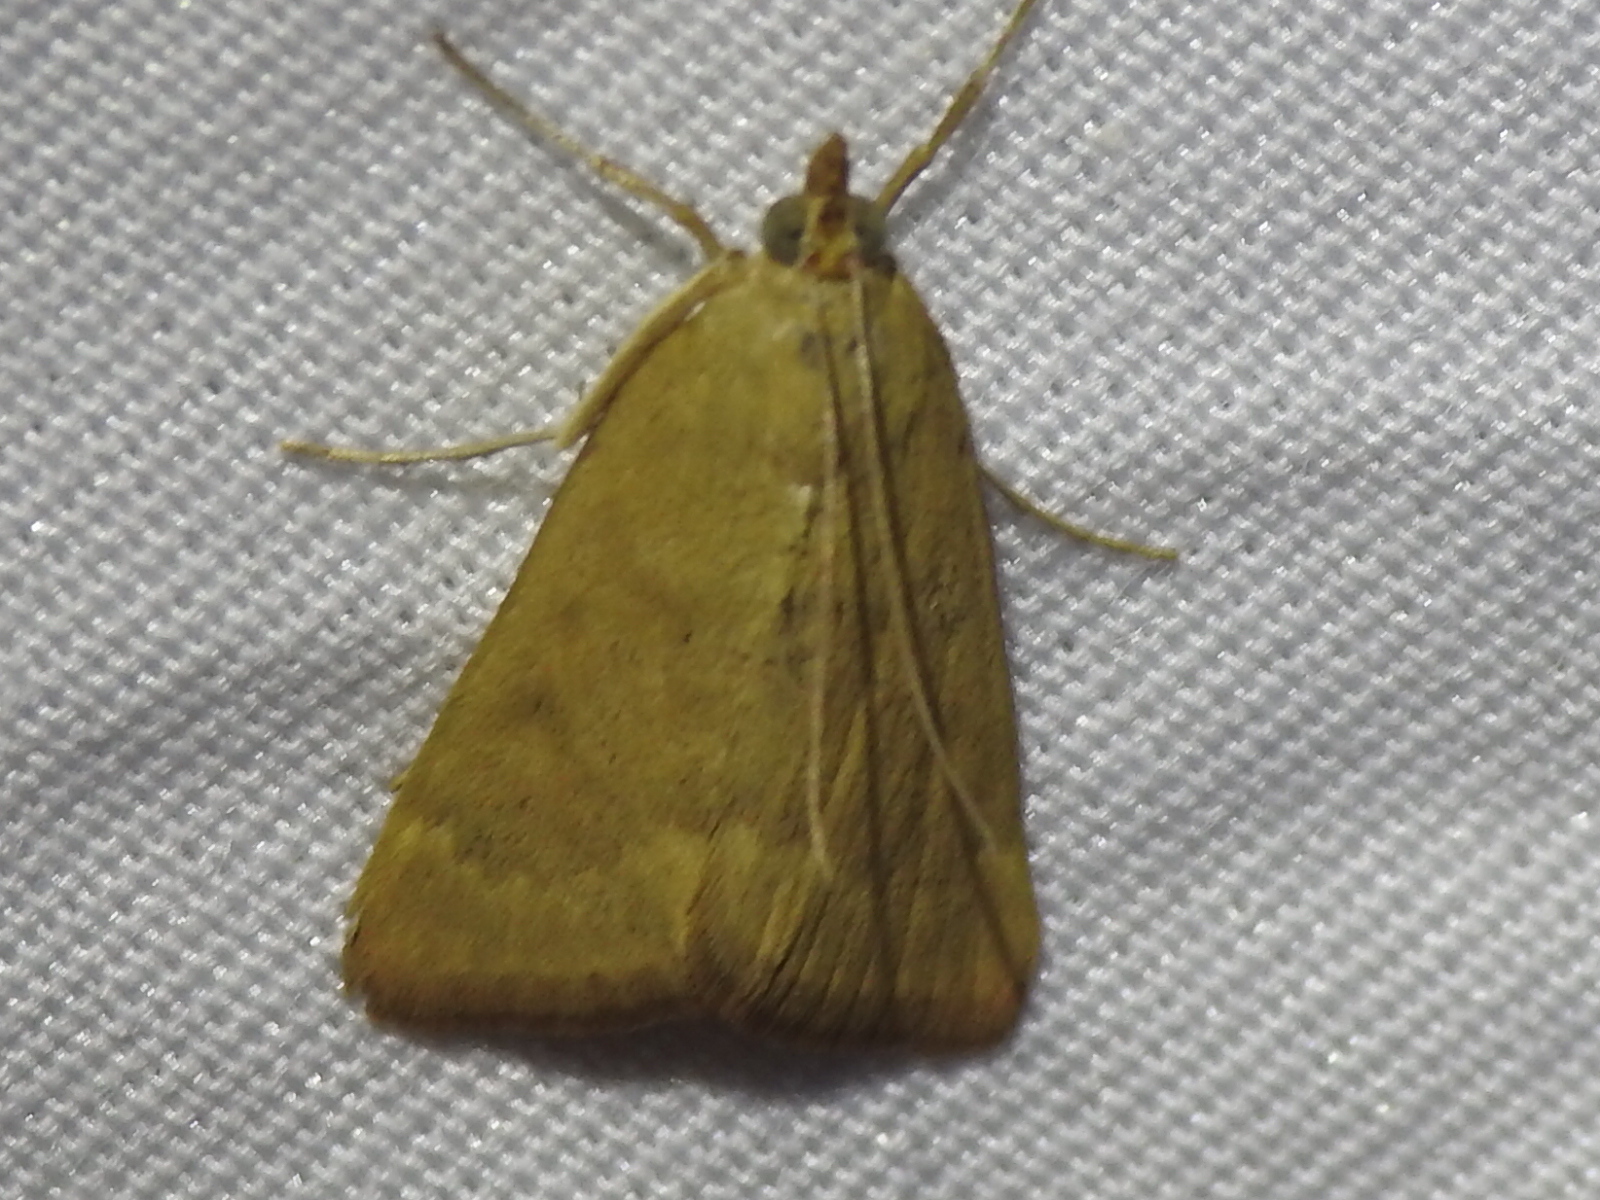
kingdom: Animalia
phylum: Arthropoda
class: Insecta
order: Lepidoptera
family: Crambidae
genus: Achyra
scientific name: Achyra rantalis
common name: Garden webworm
